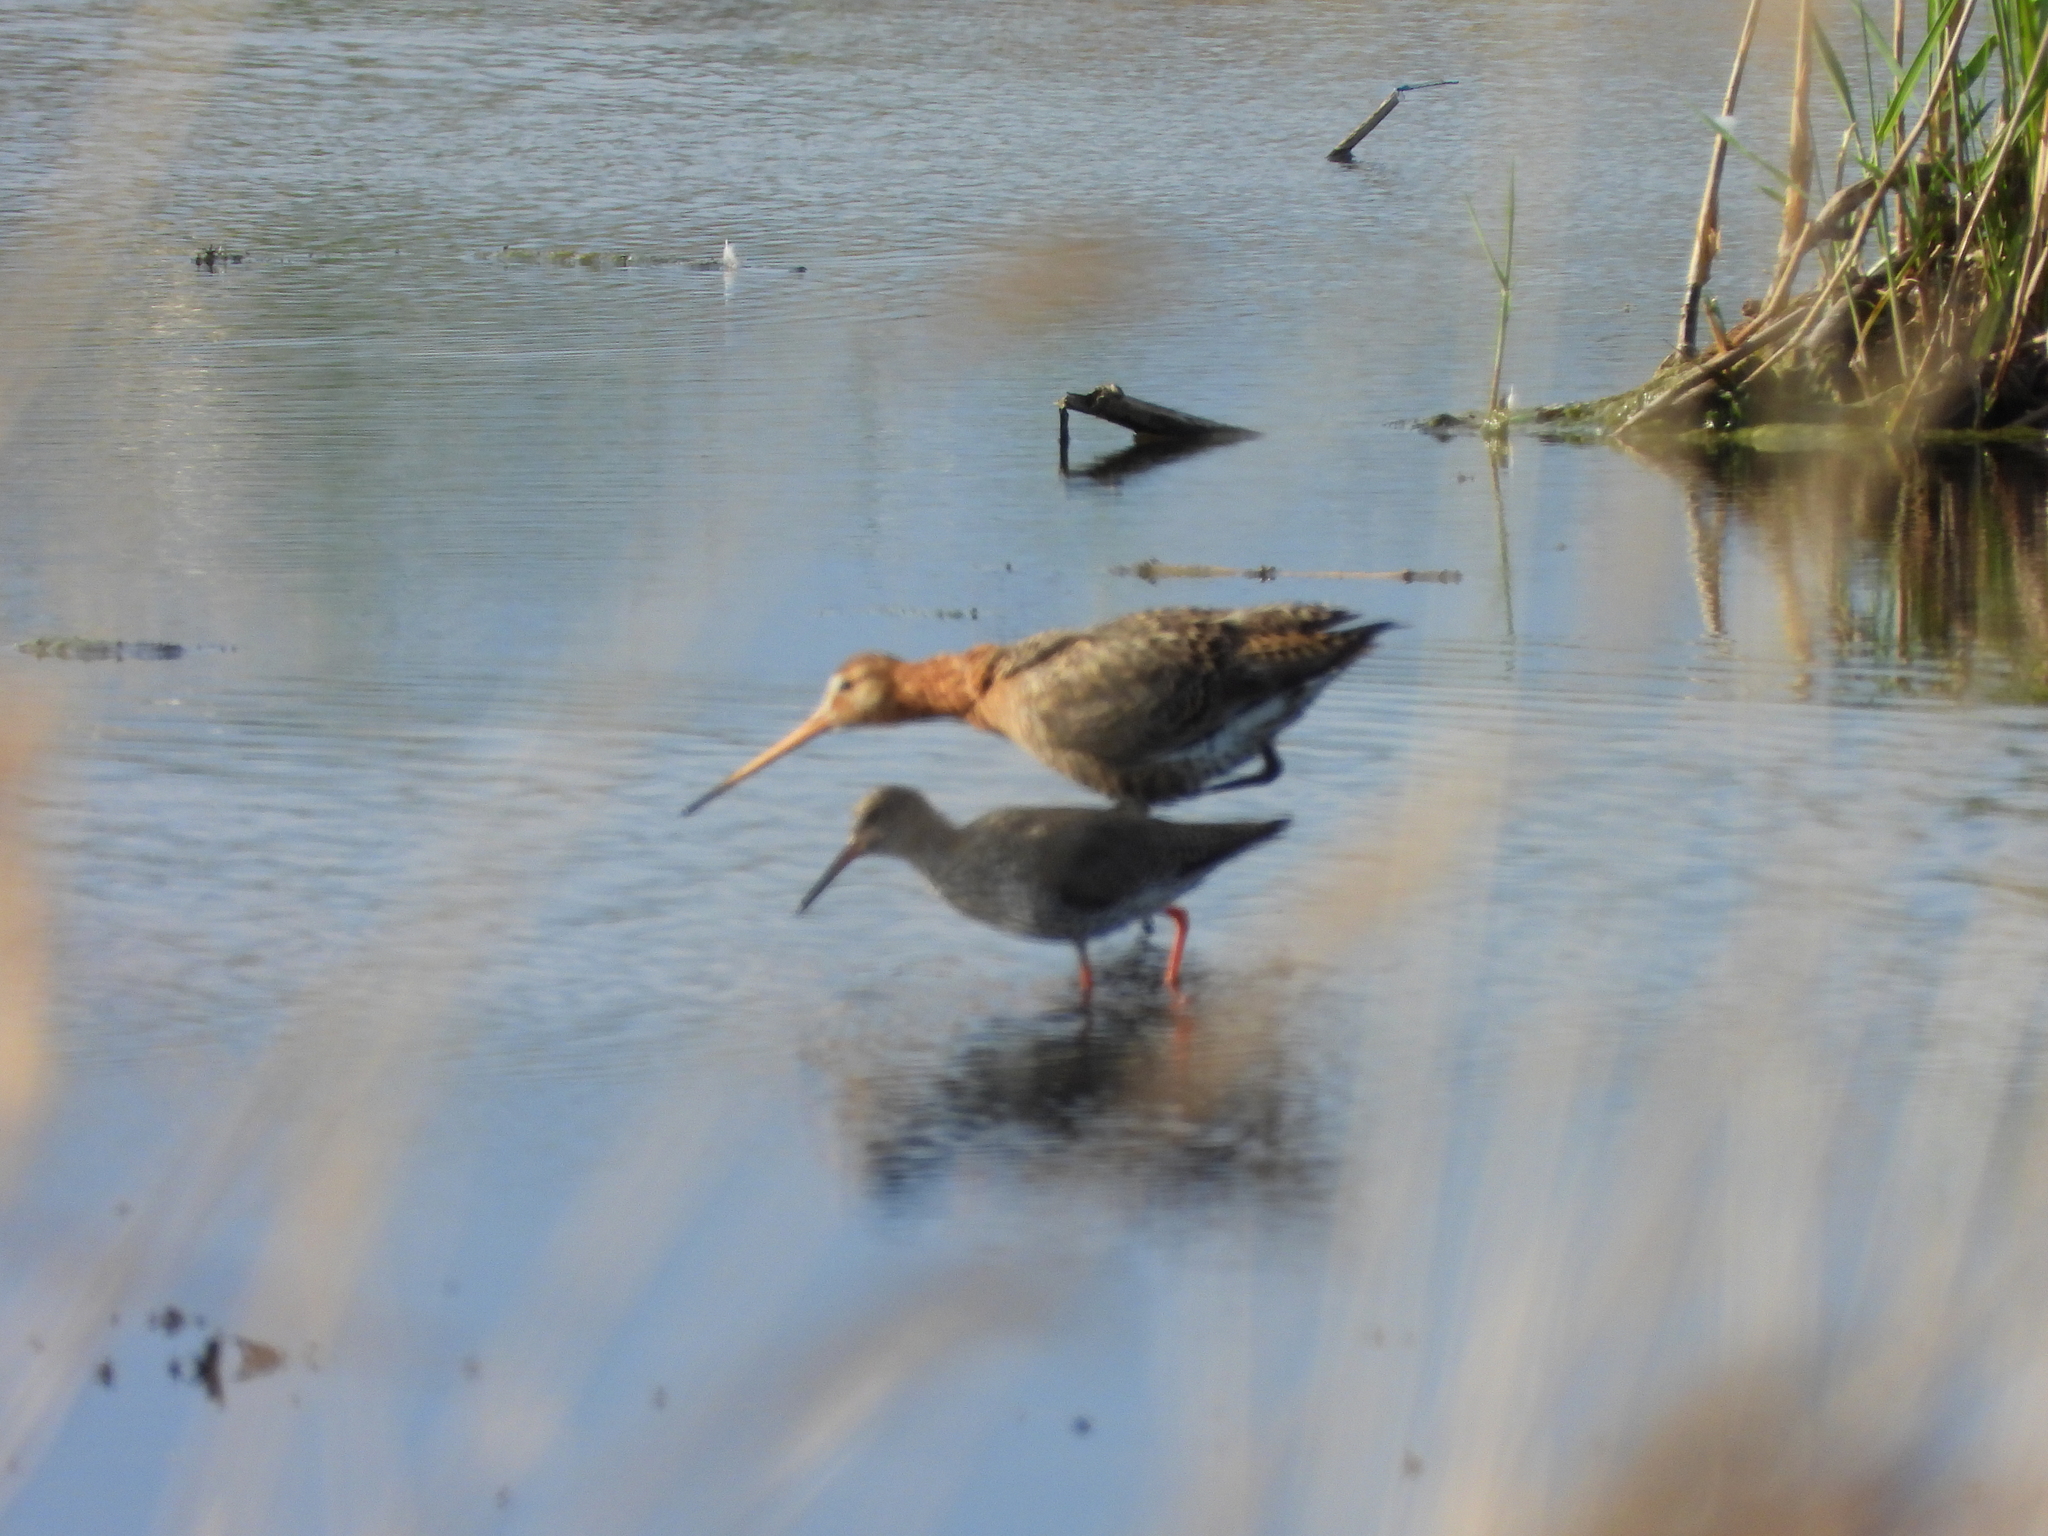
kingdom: Animalia
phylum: Chordata
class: Aves
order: Charadriiformes
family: Scolopacidae
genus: Tringa
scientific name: Tringa totanus
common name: Common redshank
